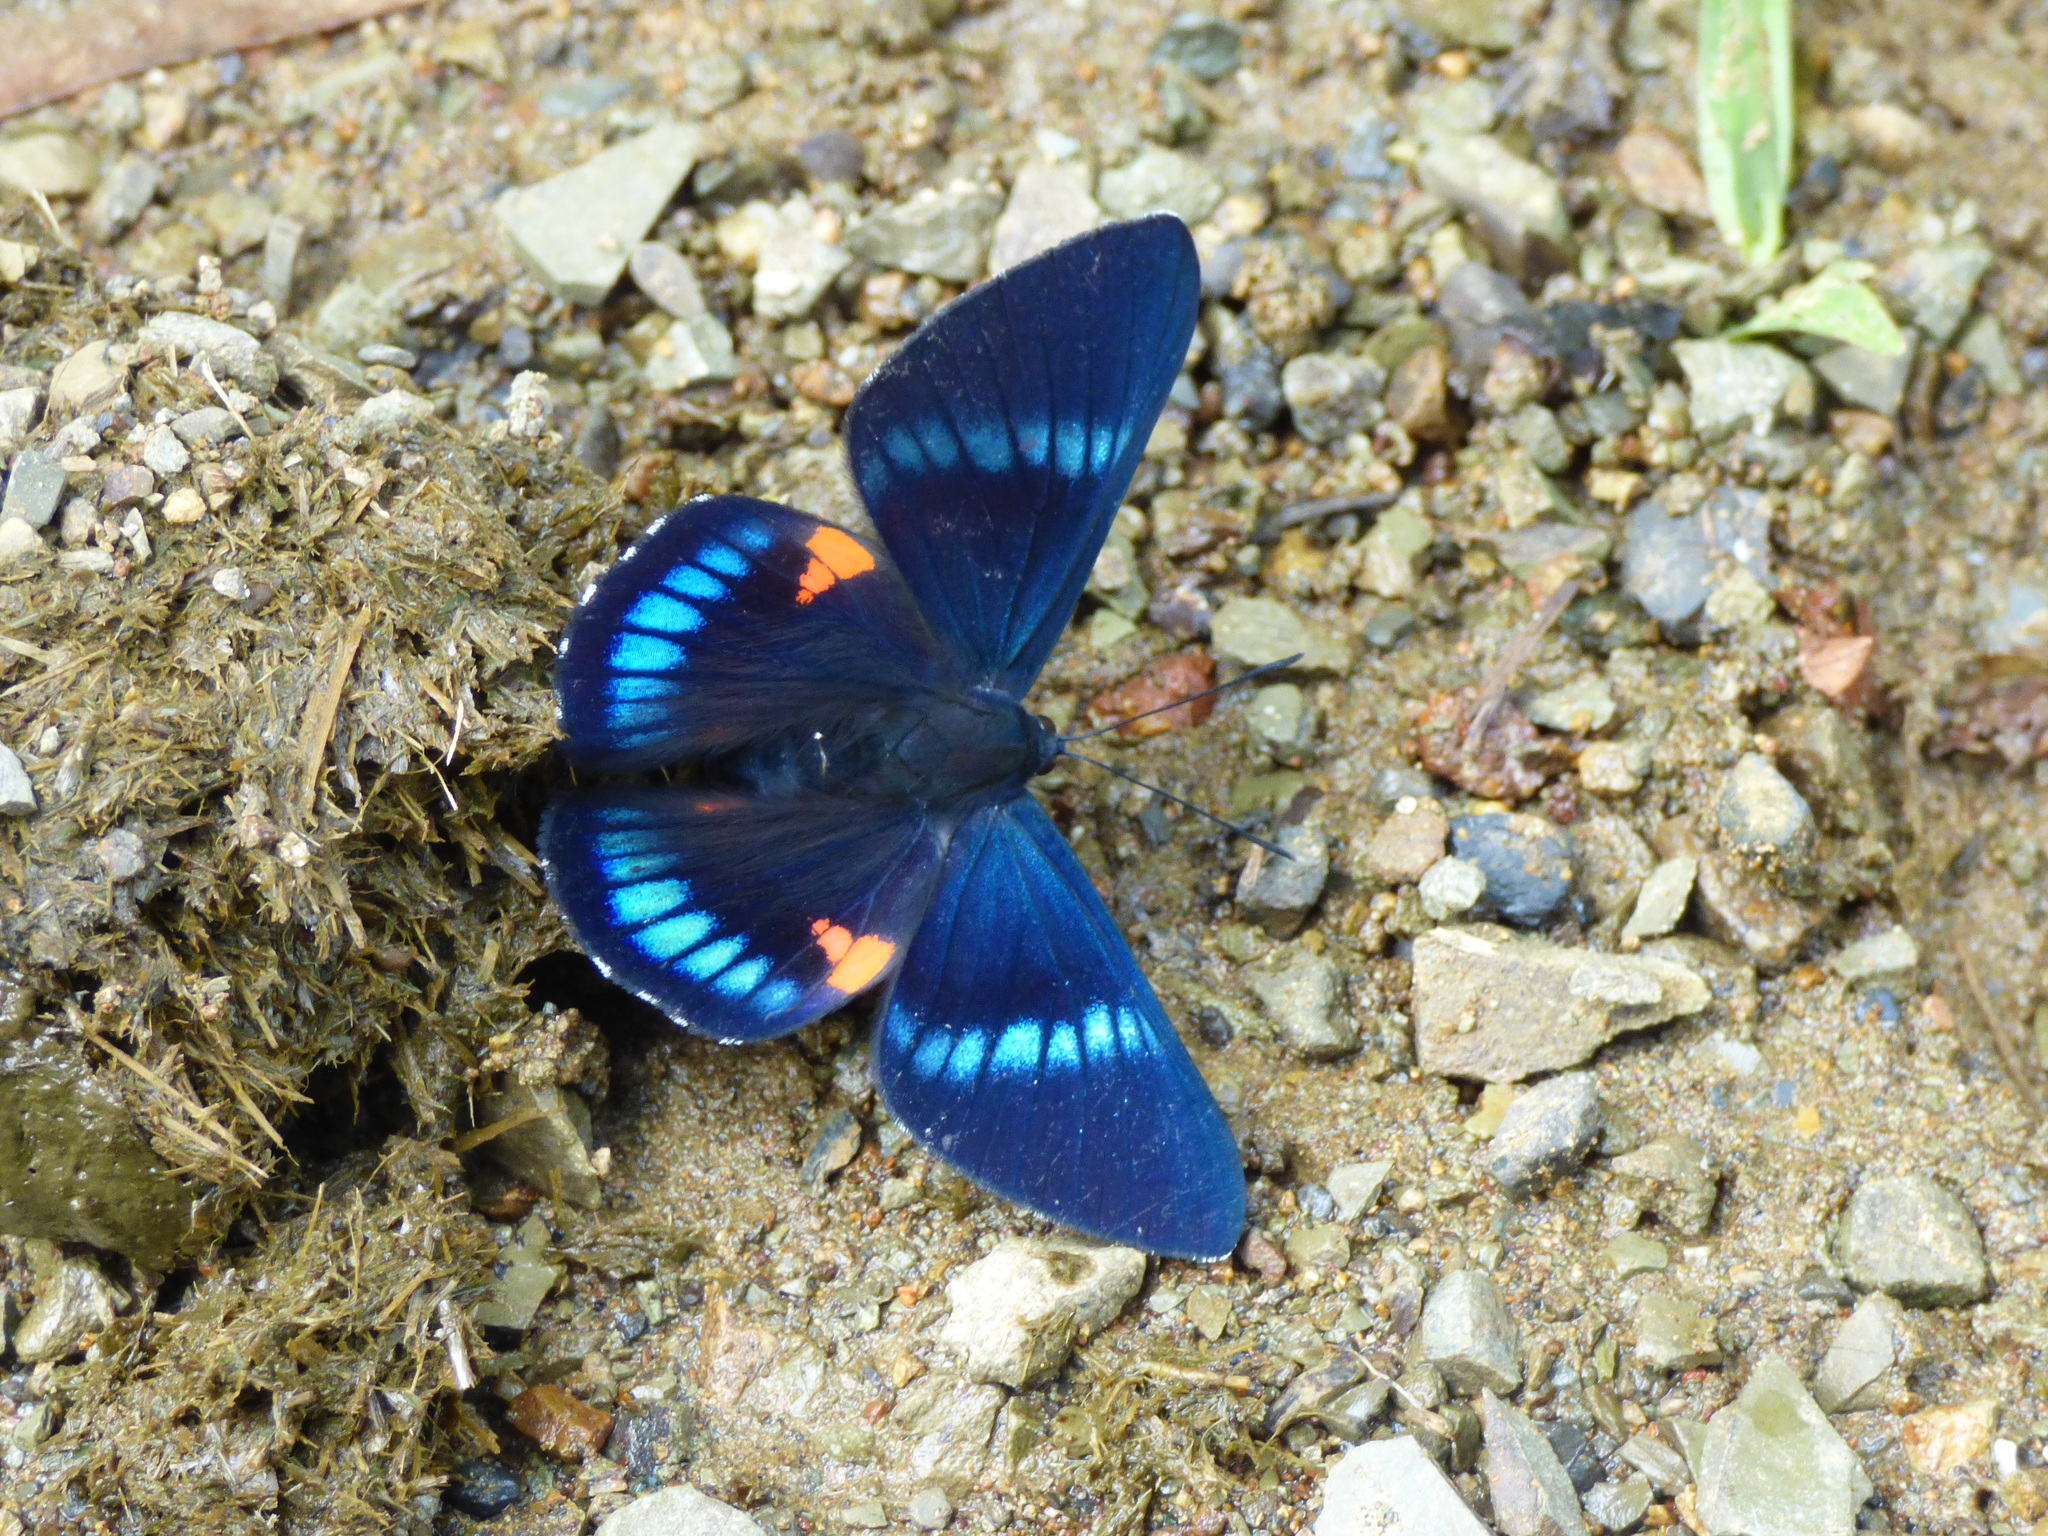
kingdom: Animalia
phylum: Arthropoda
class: Insecta
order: Lepidoptera
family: Lycaenidae
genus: Necyria
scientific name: Necyria bellona
